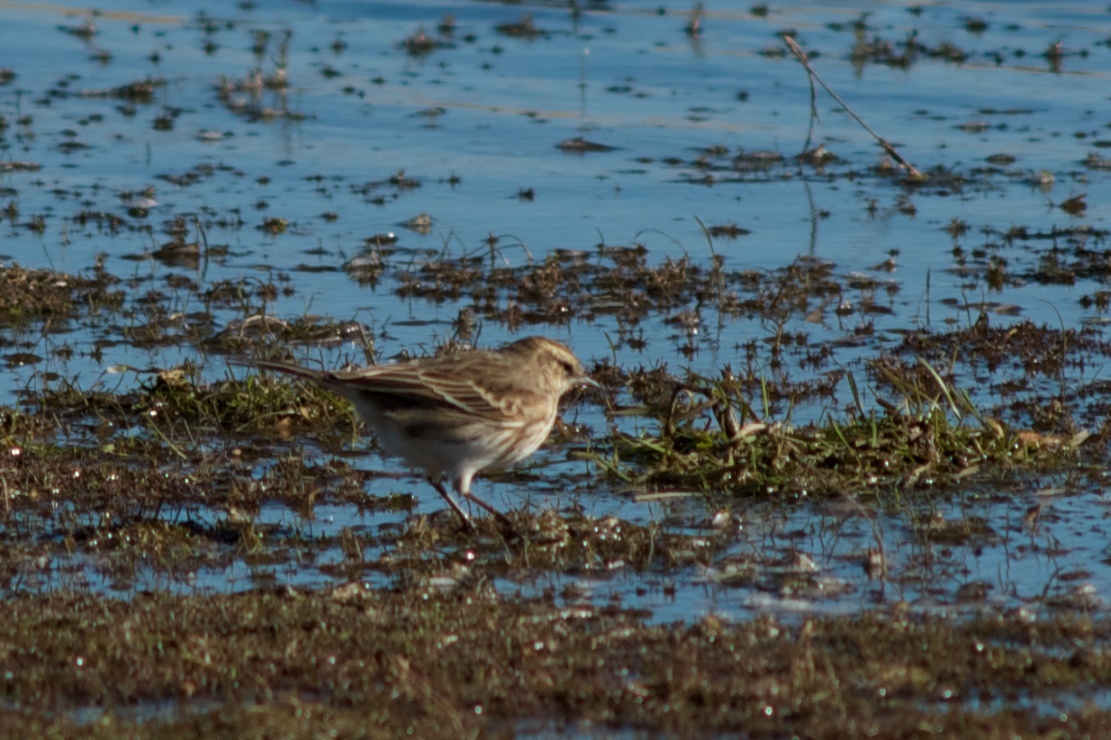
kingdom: Animalia
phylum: Chordata
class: Aves
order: Passeriformes
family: Motacillidae
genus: Anthus
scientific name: Anthus novaeseelandiae
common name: New zealand pipit
